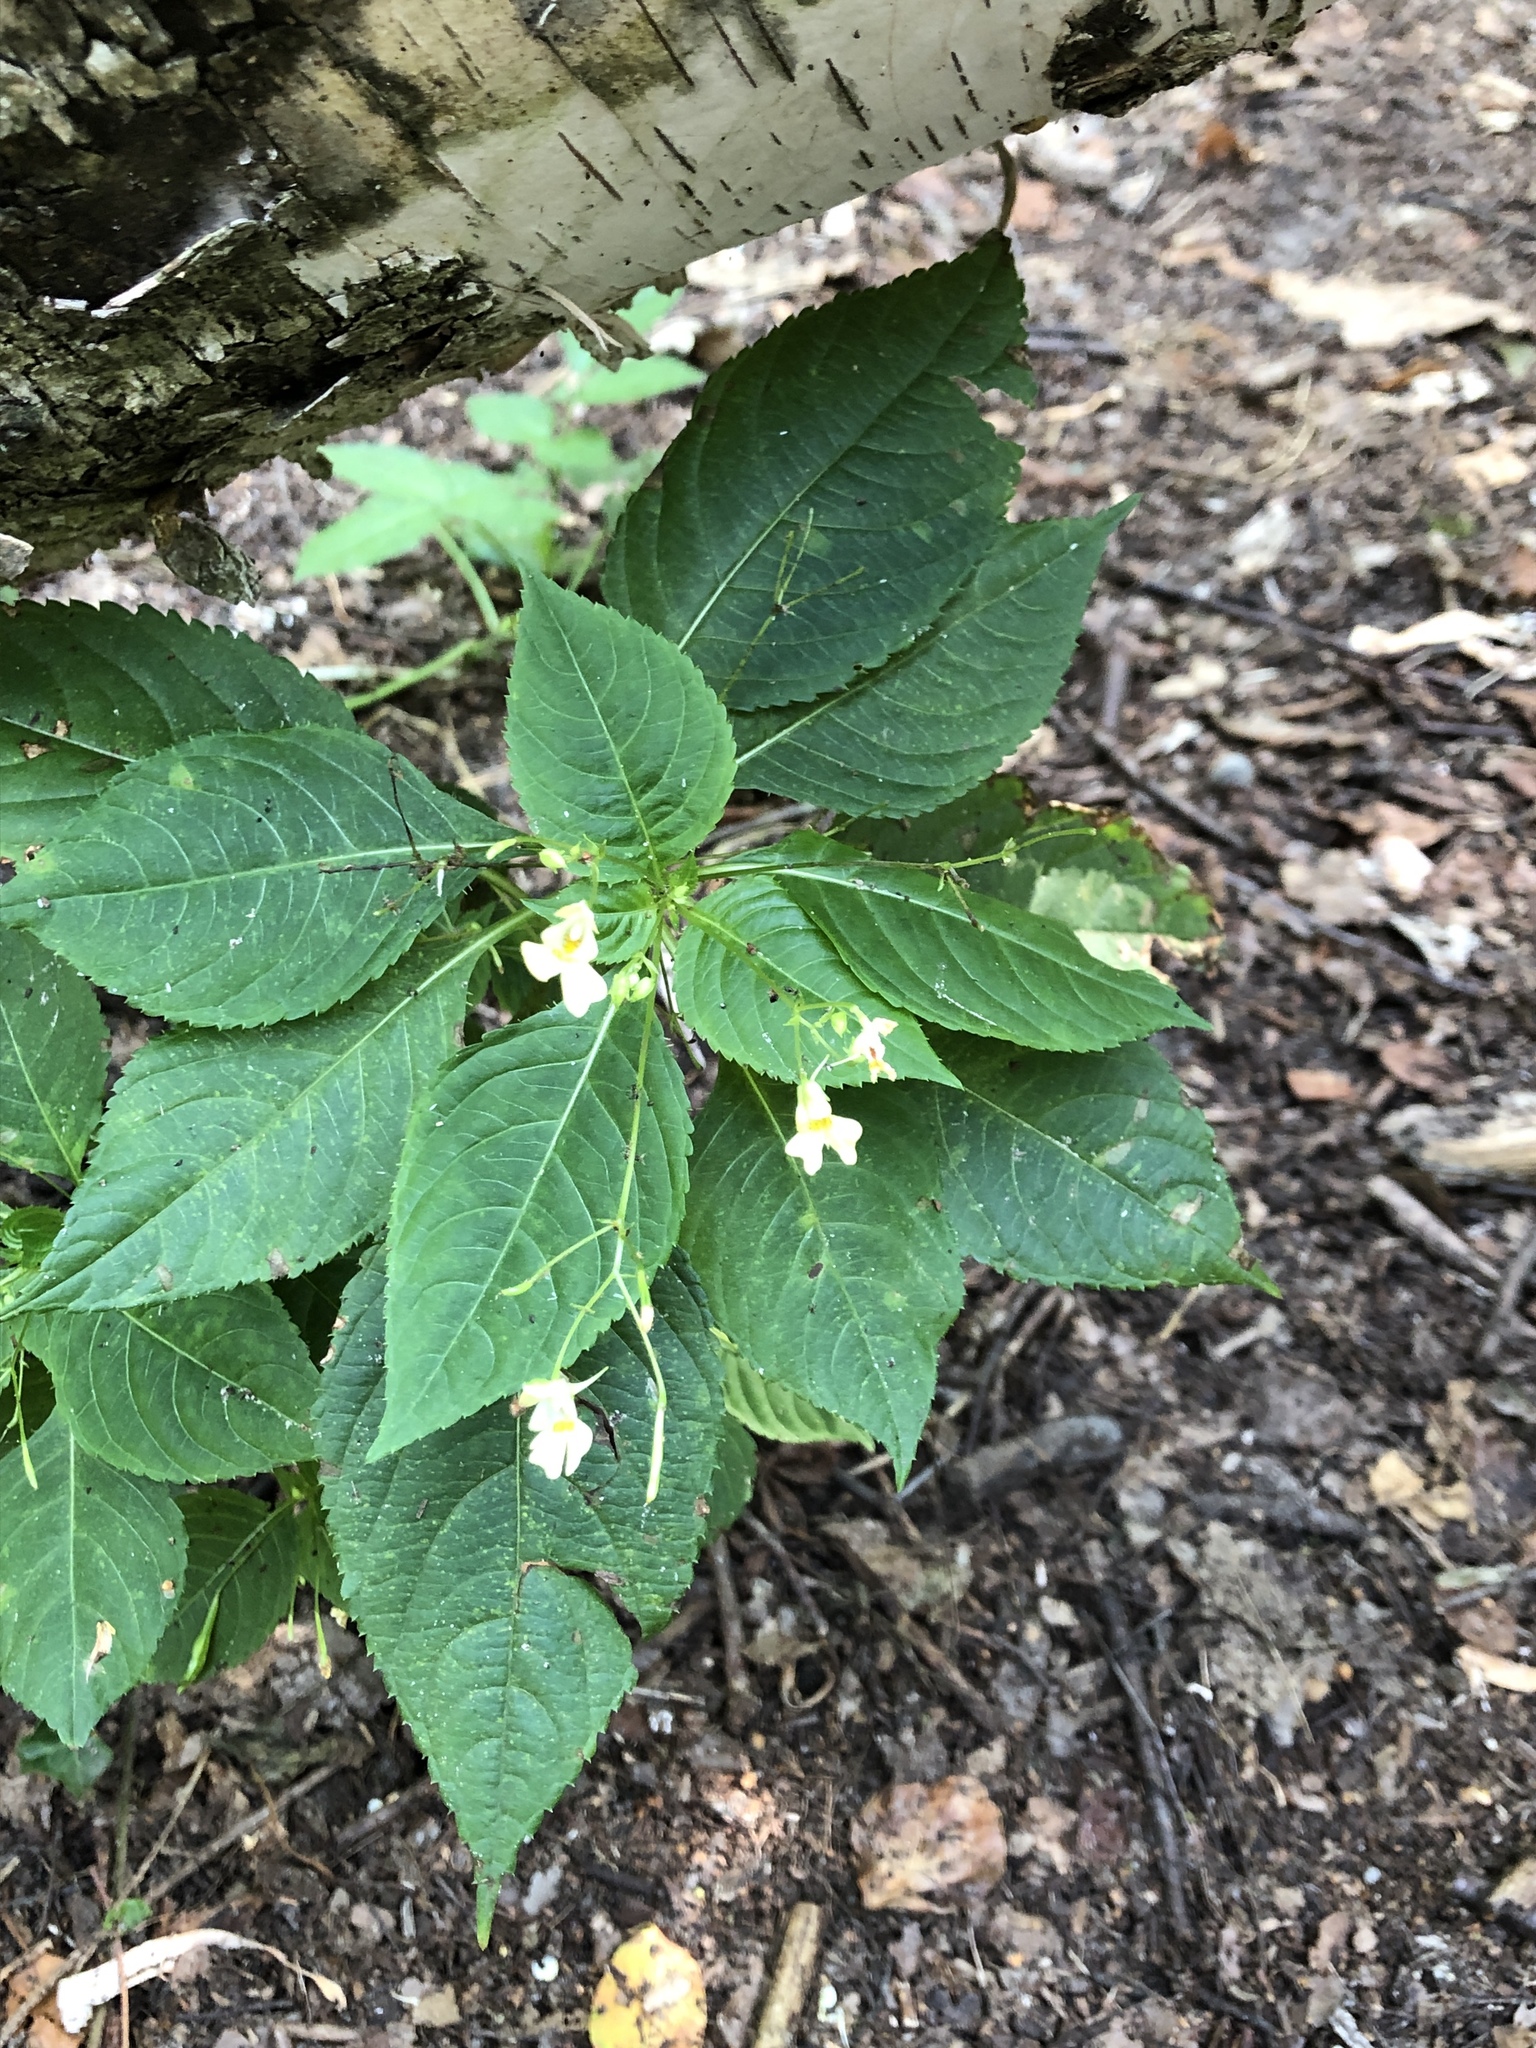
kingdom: Plantae
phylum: Tracheophyta
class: Magnoliopsida
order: Ericales
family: Balsaminaceae
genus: Impatiens
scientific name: Impatiens parviflora
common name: Small balsam
